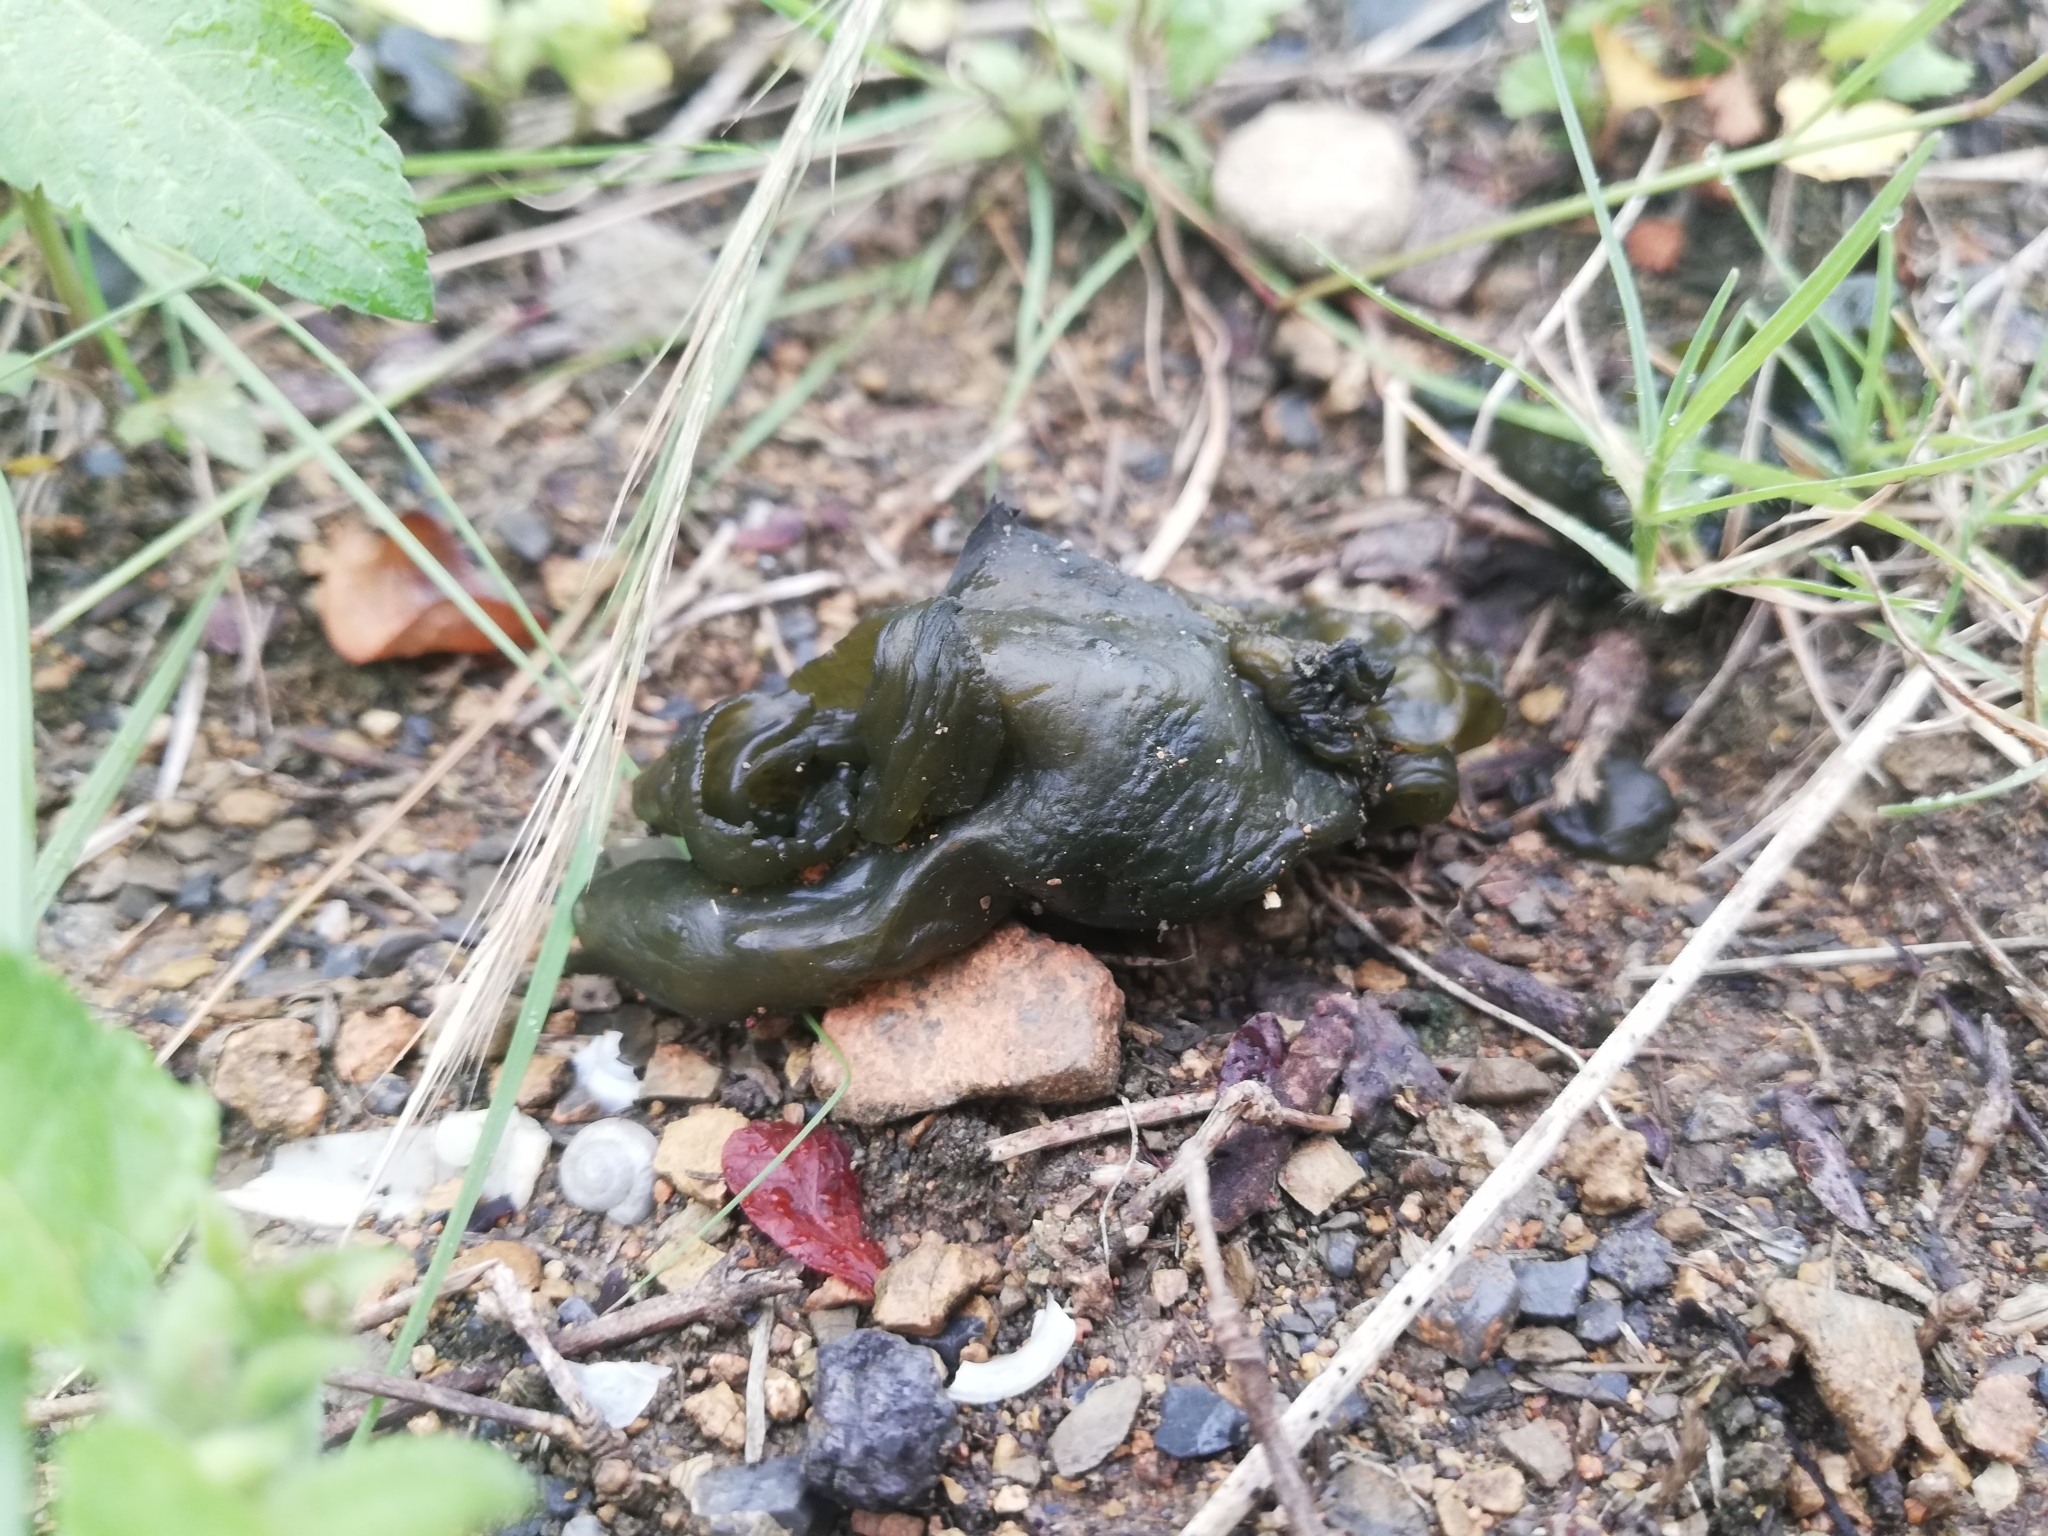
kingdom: Bacteria
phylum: Cyanobacteria
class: Cyanobacteriia
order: Cyanobacteriales
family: Nostocaceae
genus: Nostoc
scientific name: Nostoc commune
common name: Star jelly
